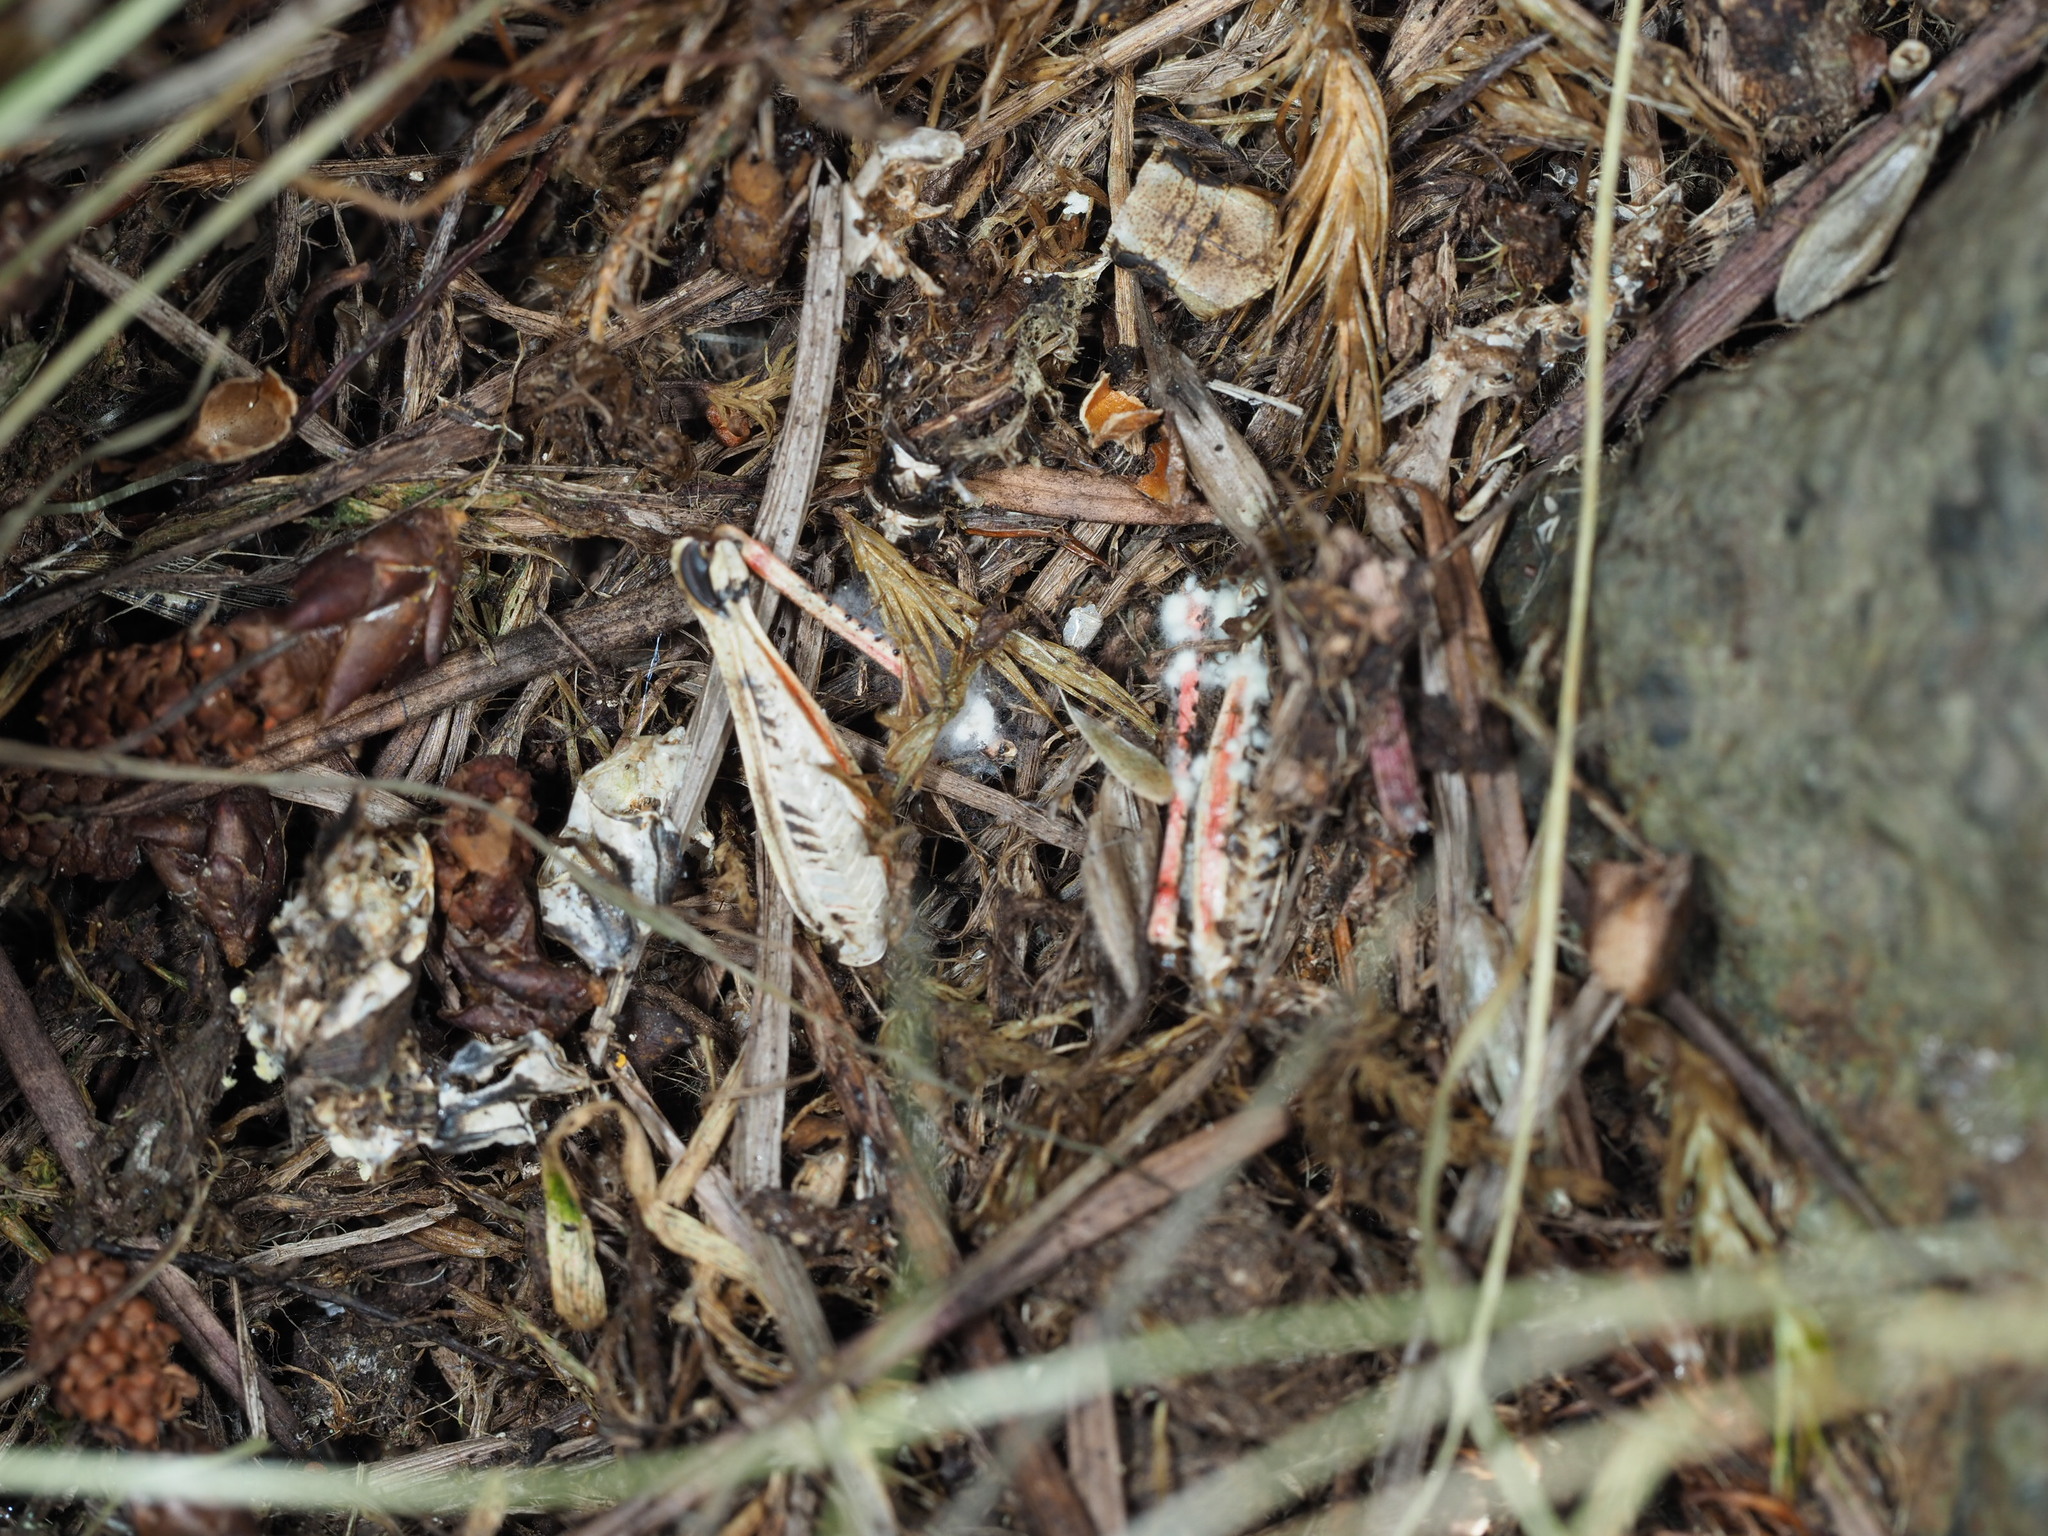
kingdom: Animalia
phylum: Arthropoda
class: Insecta
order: Orthoptera
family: Acrididae
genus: Melanoplus
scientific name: Melanoplus sanguinipes
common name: Migratory grasshopper
